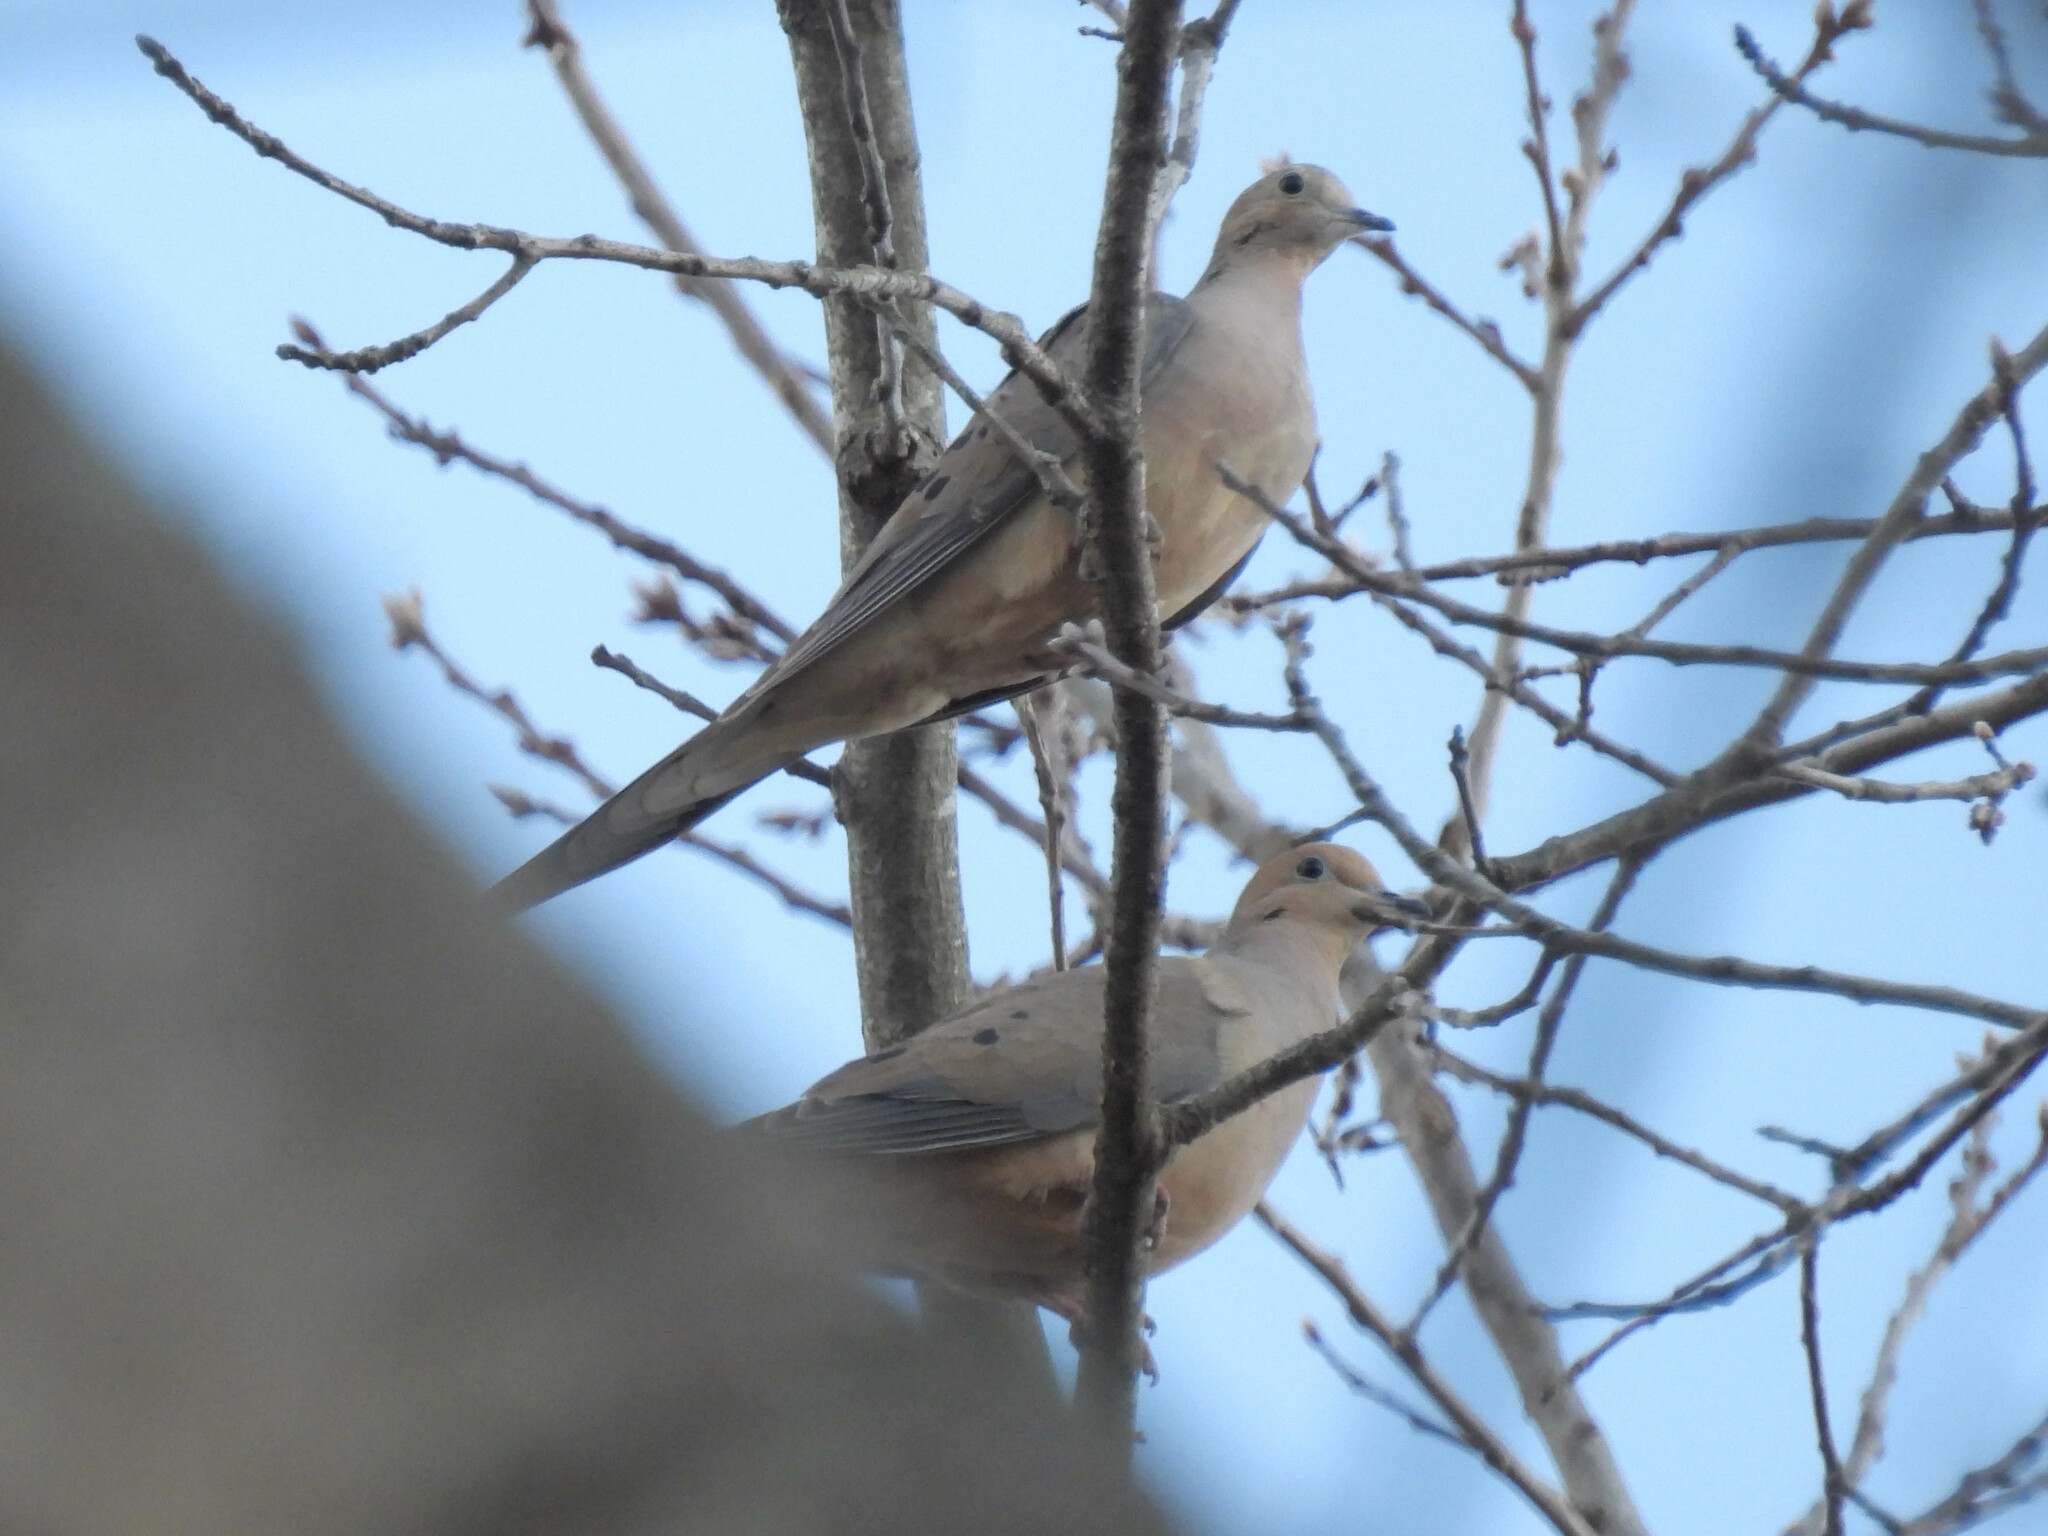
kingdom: Animalia
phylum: Chordata
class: Aves
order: Columbiformes
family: Columbidae
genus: Zenaida
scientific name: Zenaida macroura
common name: Mourning dove
